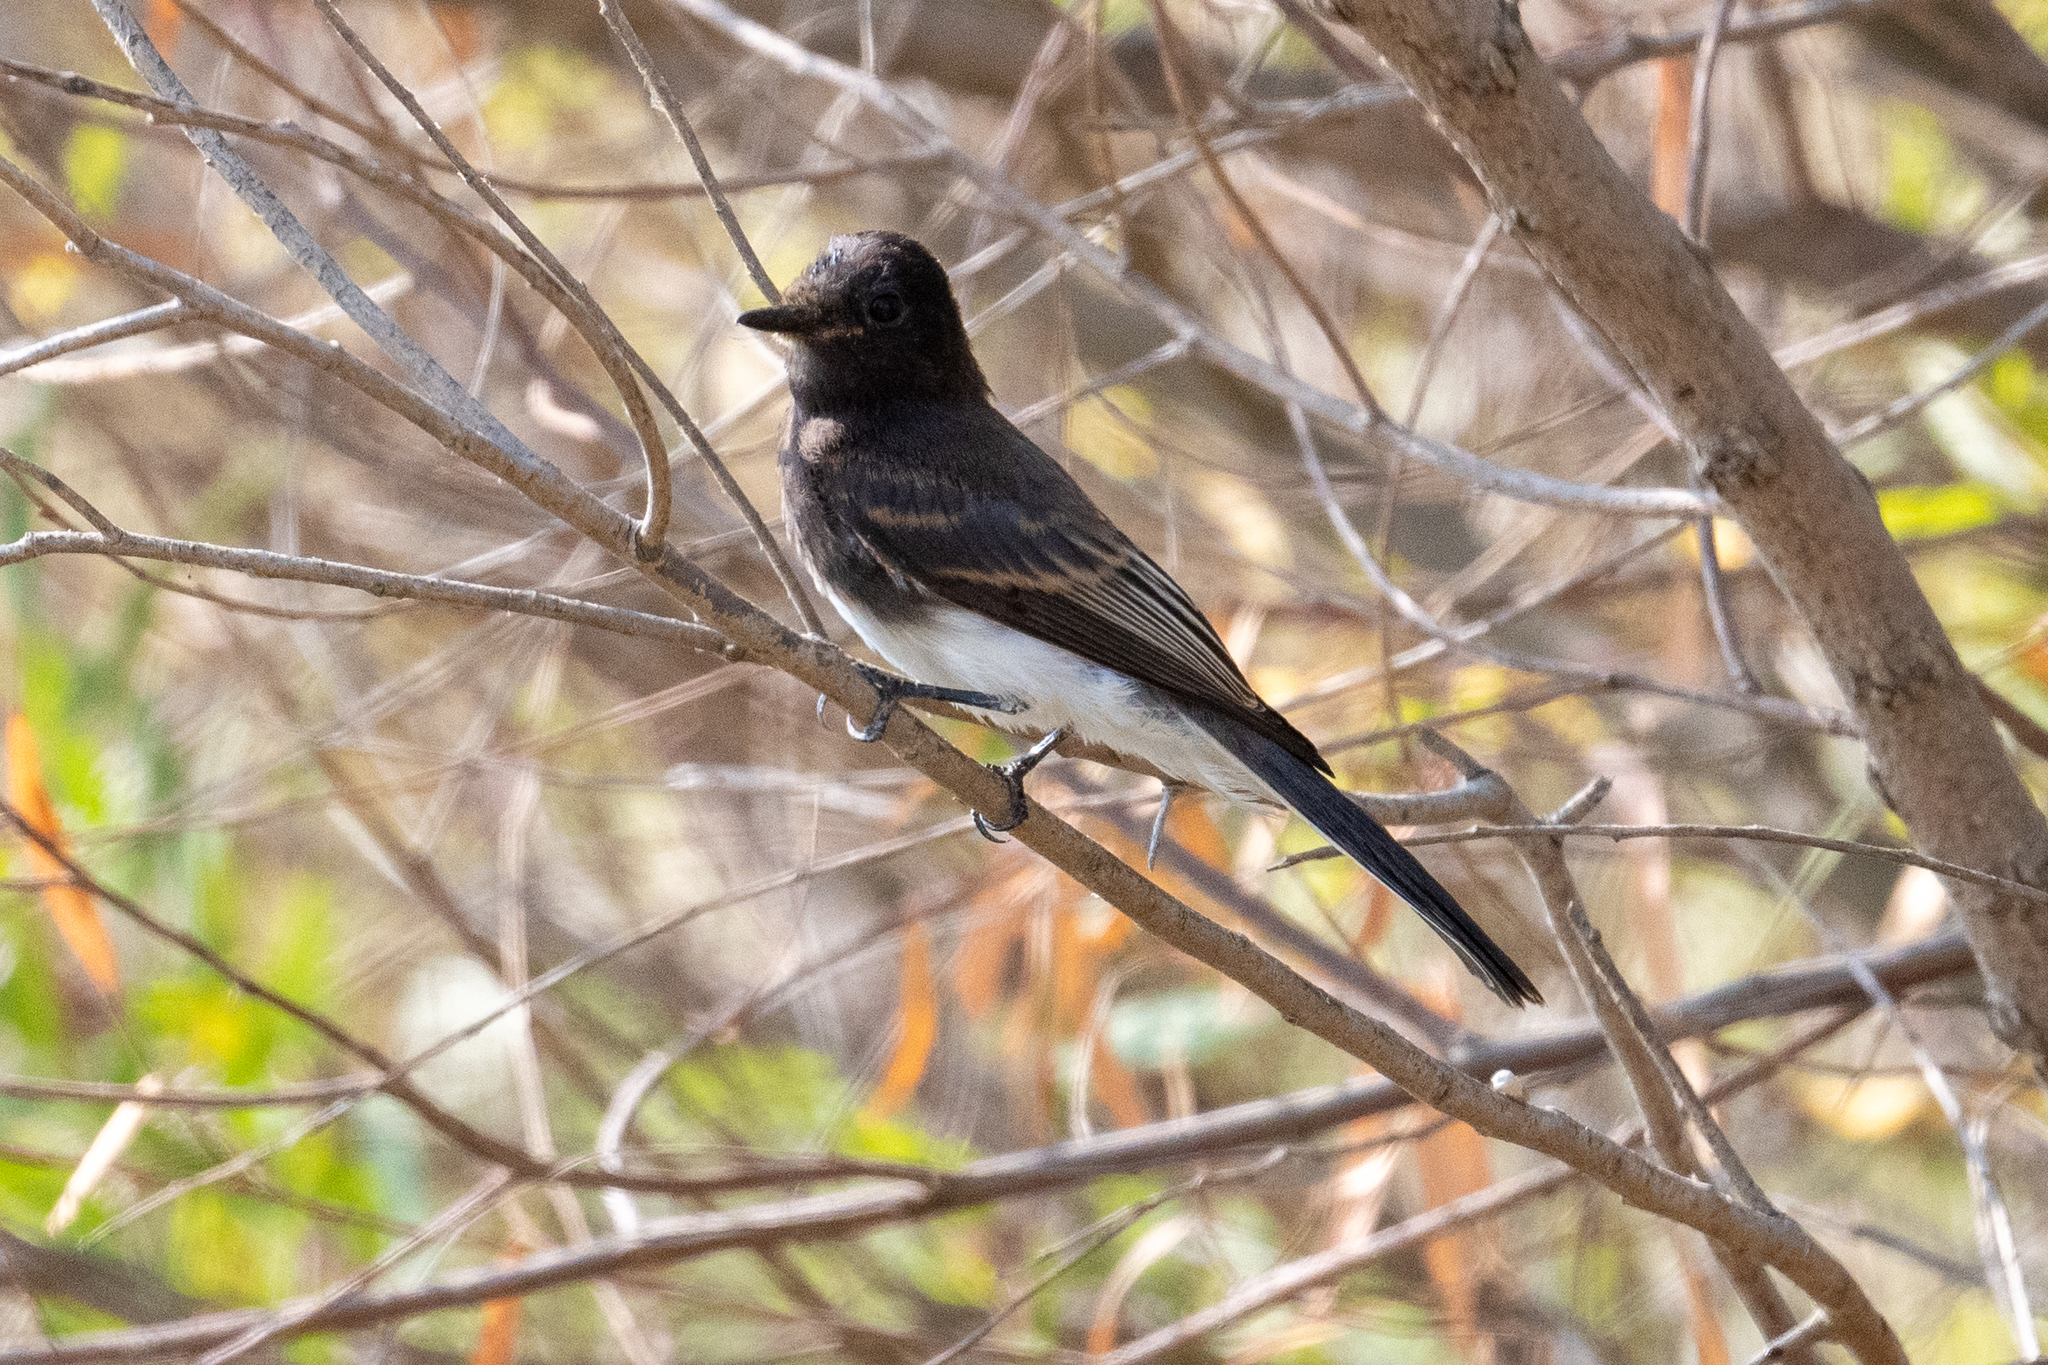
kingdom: Animalia
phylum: Chordata
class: Aves
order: Passeriformes
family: Tyrannidae
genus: Sayornis
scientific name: Sayornis nigricans
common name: Black phoebe
